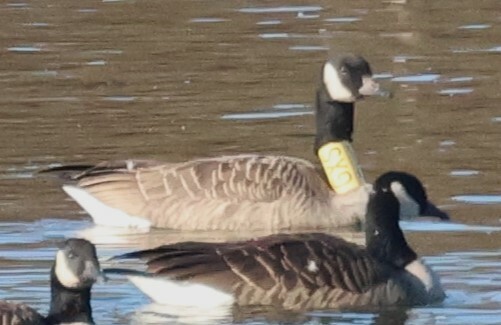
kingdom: Animalia
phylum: Chordata
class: Aves
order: Anseriformes
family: Anatidae
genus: Branta
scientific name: Branta canadensis
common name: Canada goose
